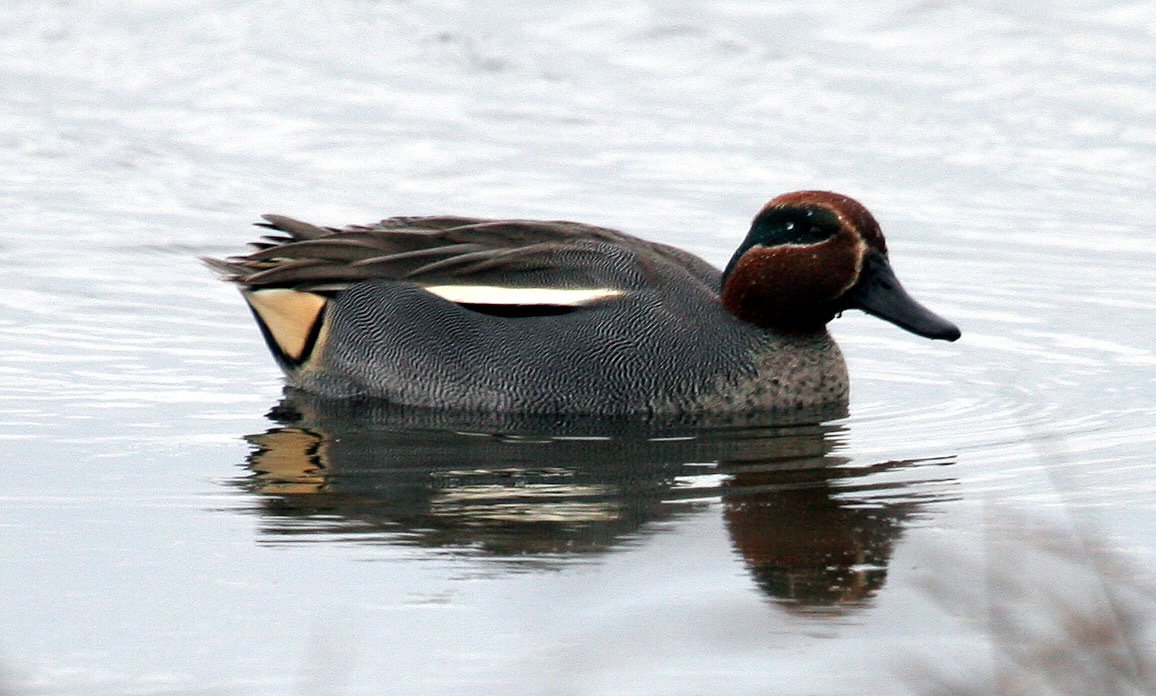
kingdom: Animalia
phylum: Chordata
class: Aves
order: Anseriformes
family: Anatidae
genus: Anas
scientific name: Anas crecca
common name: Eurasian teal
